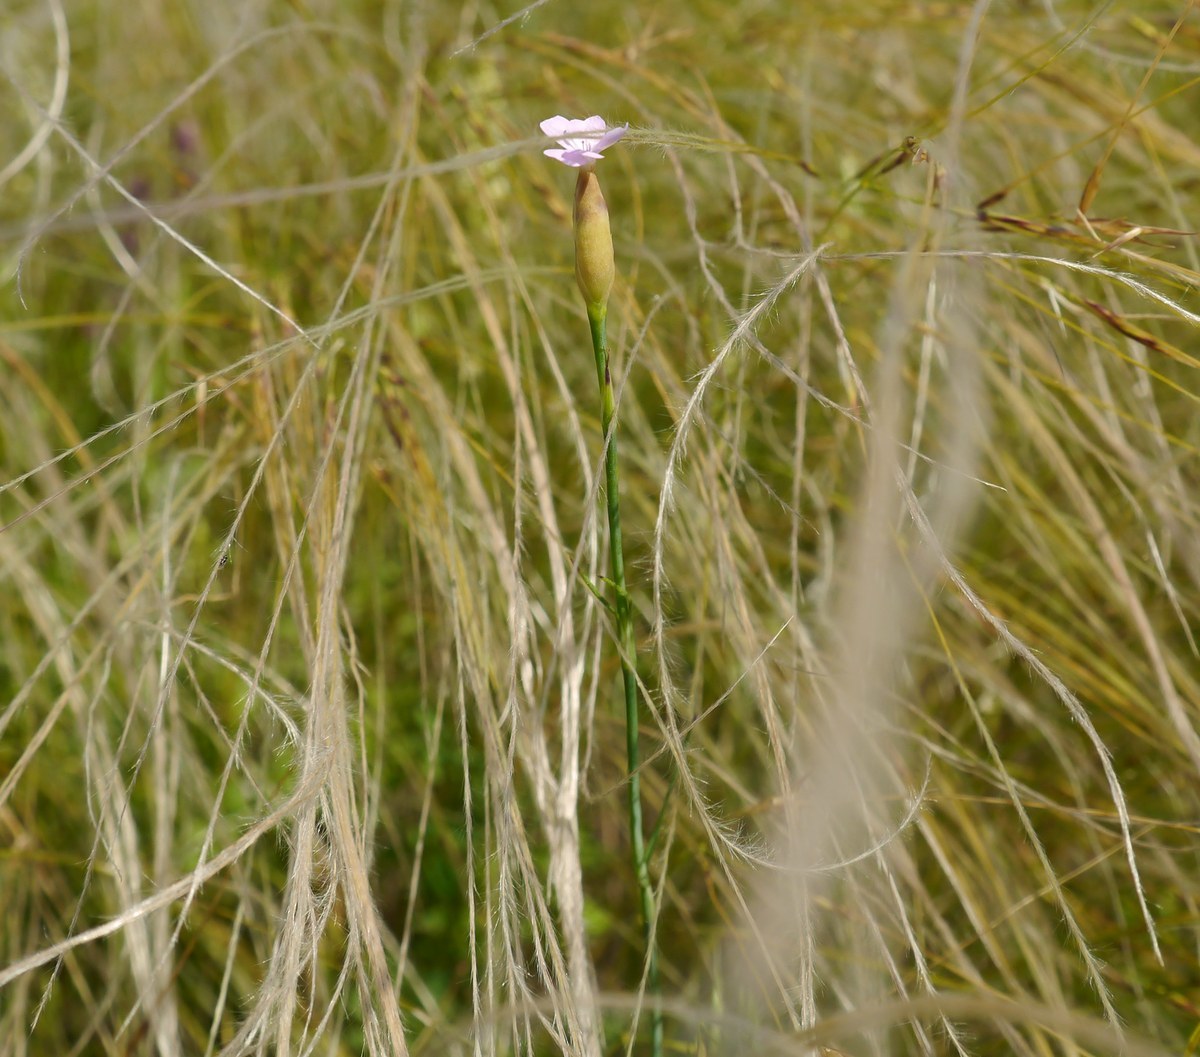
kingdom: Plantae
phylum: Tracheophyta
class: Magnoliopsida
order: Caryophyllales
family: Caryophyllaceae
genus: Petrorhagia
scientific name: Petrorhagia prolifera
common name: Proliferous pink
